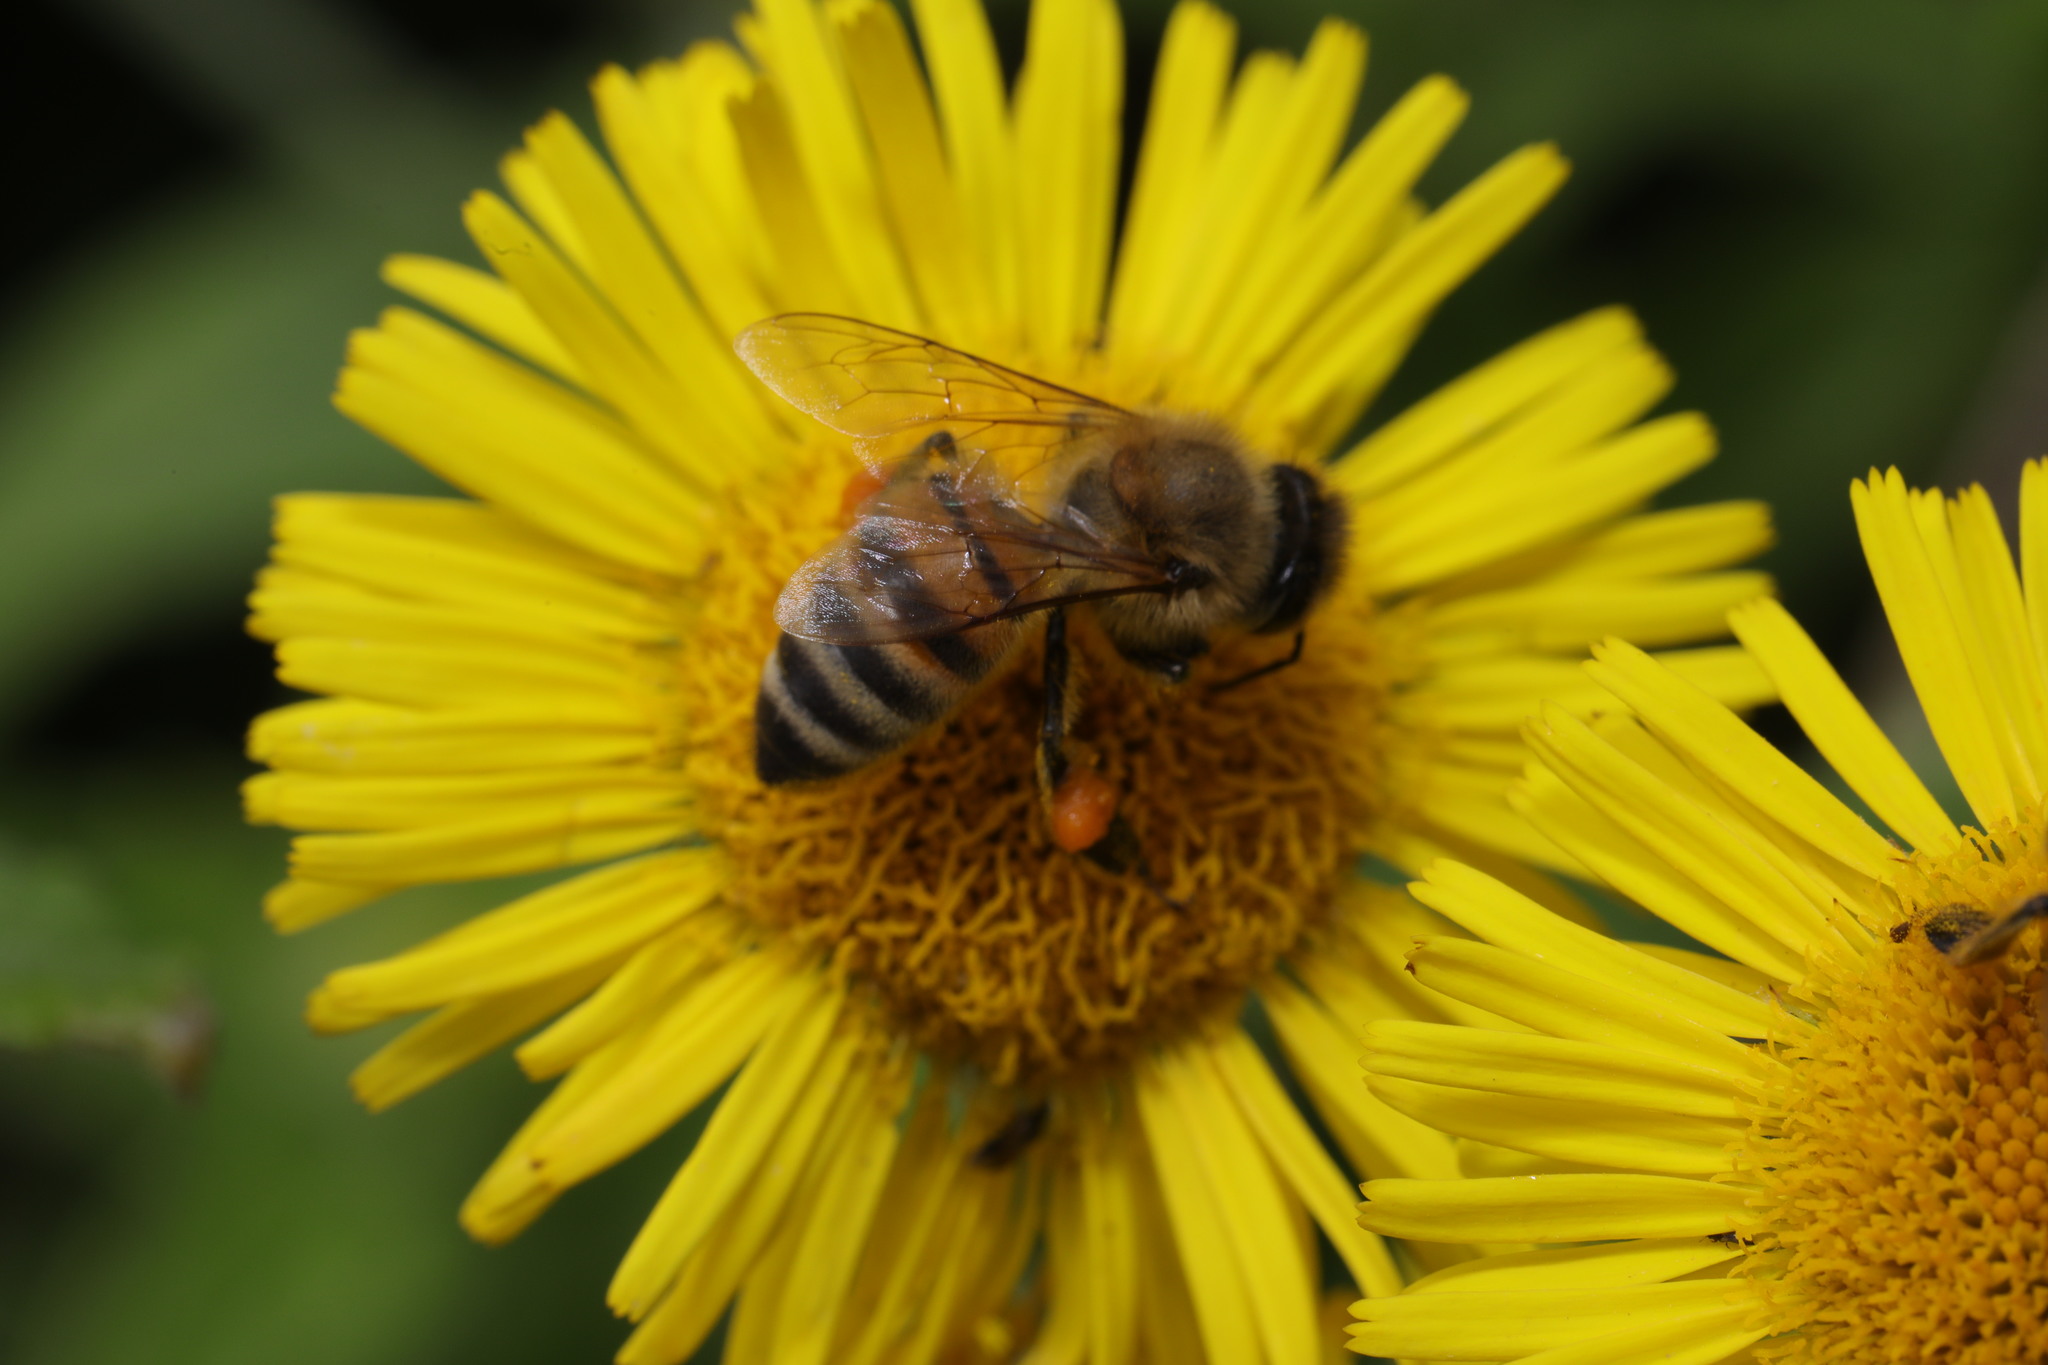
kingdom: Animalia
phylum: Arthropoda
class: Insecta
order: Hymenoptera
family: Apidae
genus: Apis
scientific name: Apis mellifera
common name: Honey bee
